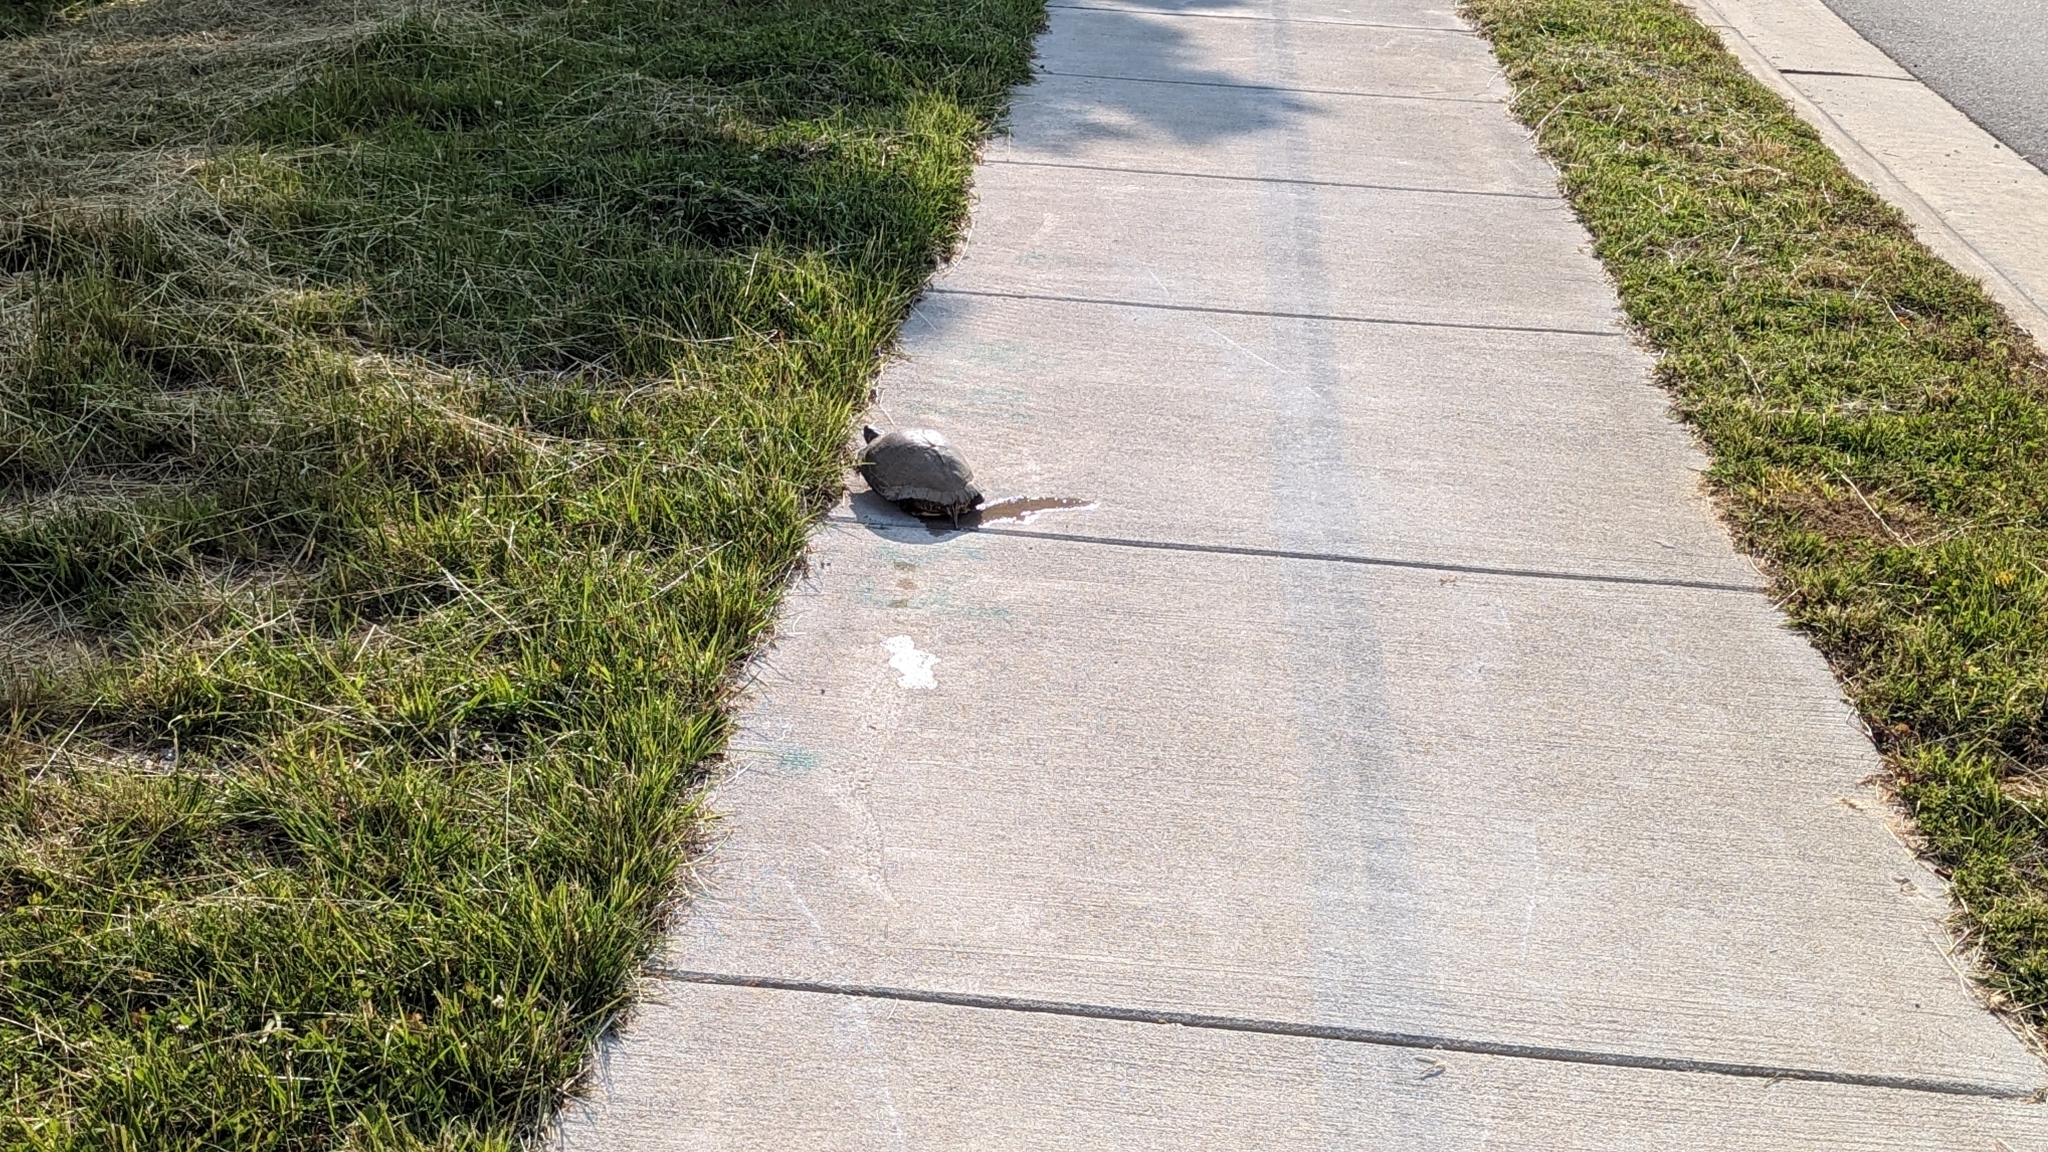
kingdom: Animalia
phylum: Chordata
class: Testudines
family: Emydidae
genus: Trachemys
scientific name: Trachemys scripta
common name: Slider
